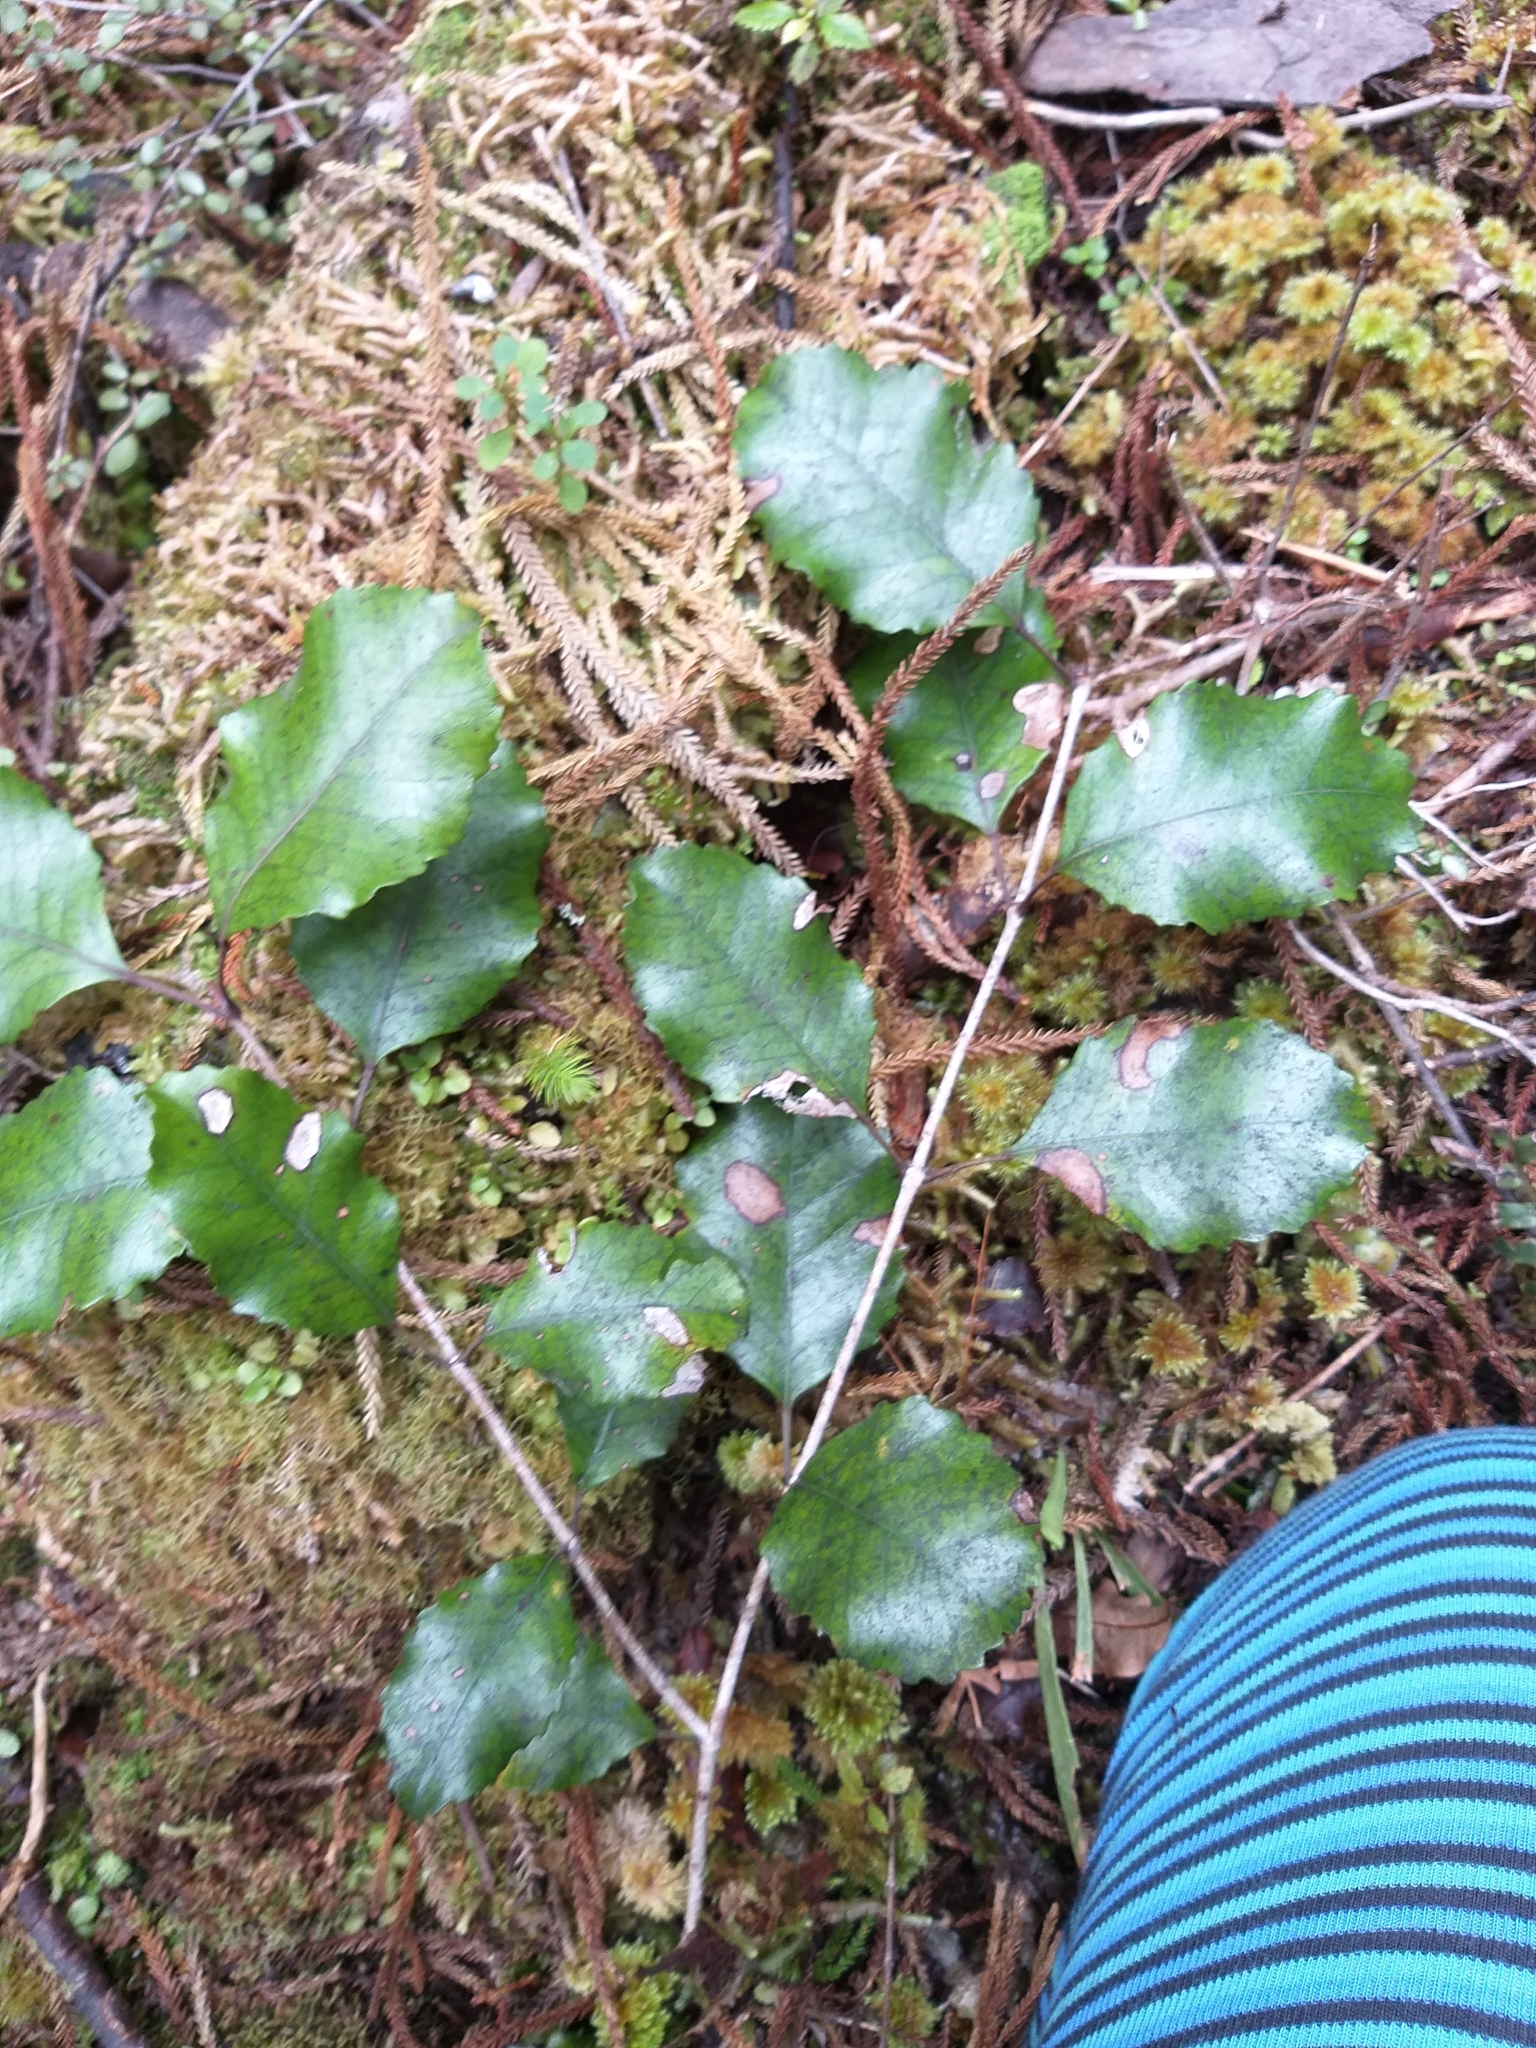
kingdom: Plantae
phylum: Tracheophyta
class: Magnoliopsida
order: Oxalidales
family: Cunoniaceae
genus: Pterophylla
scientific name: Pterophylla racemosa
